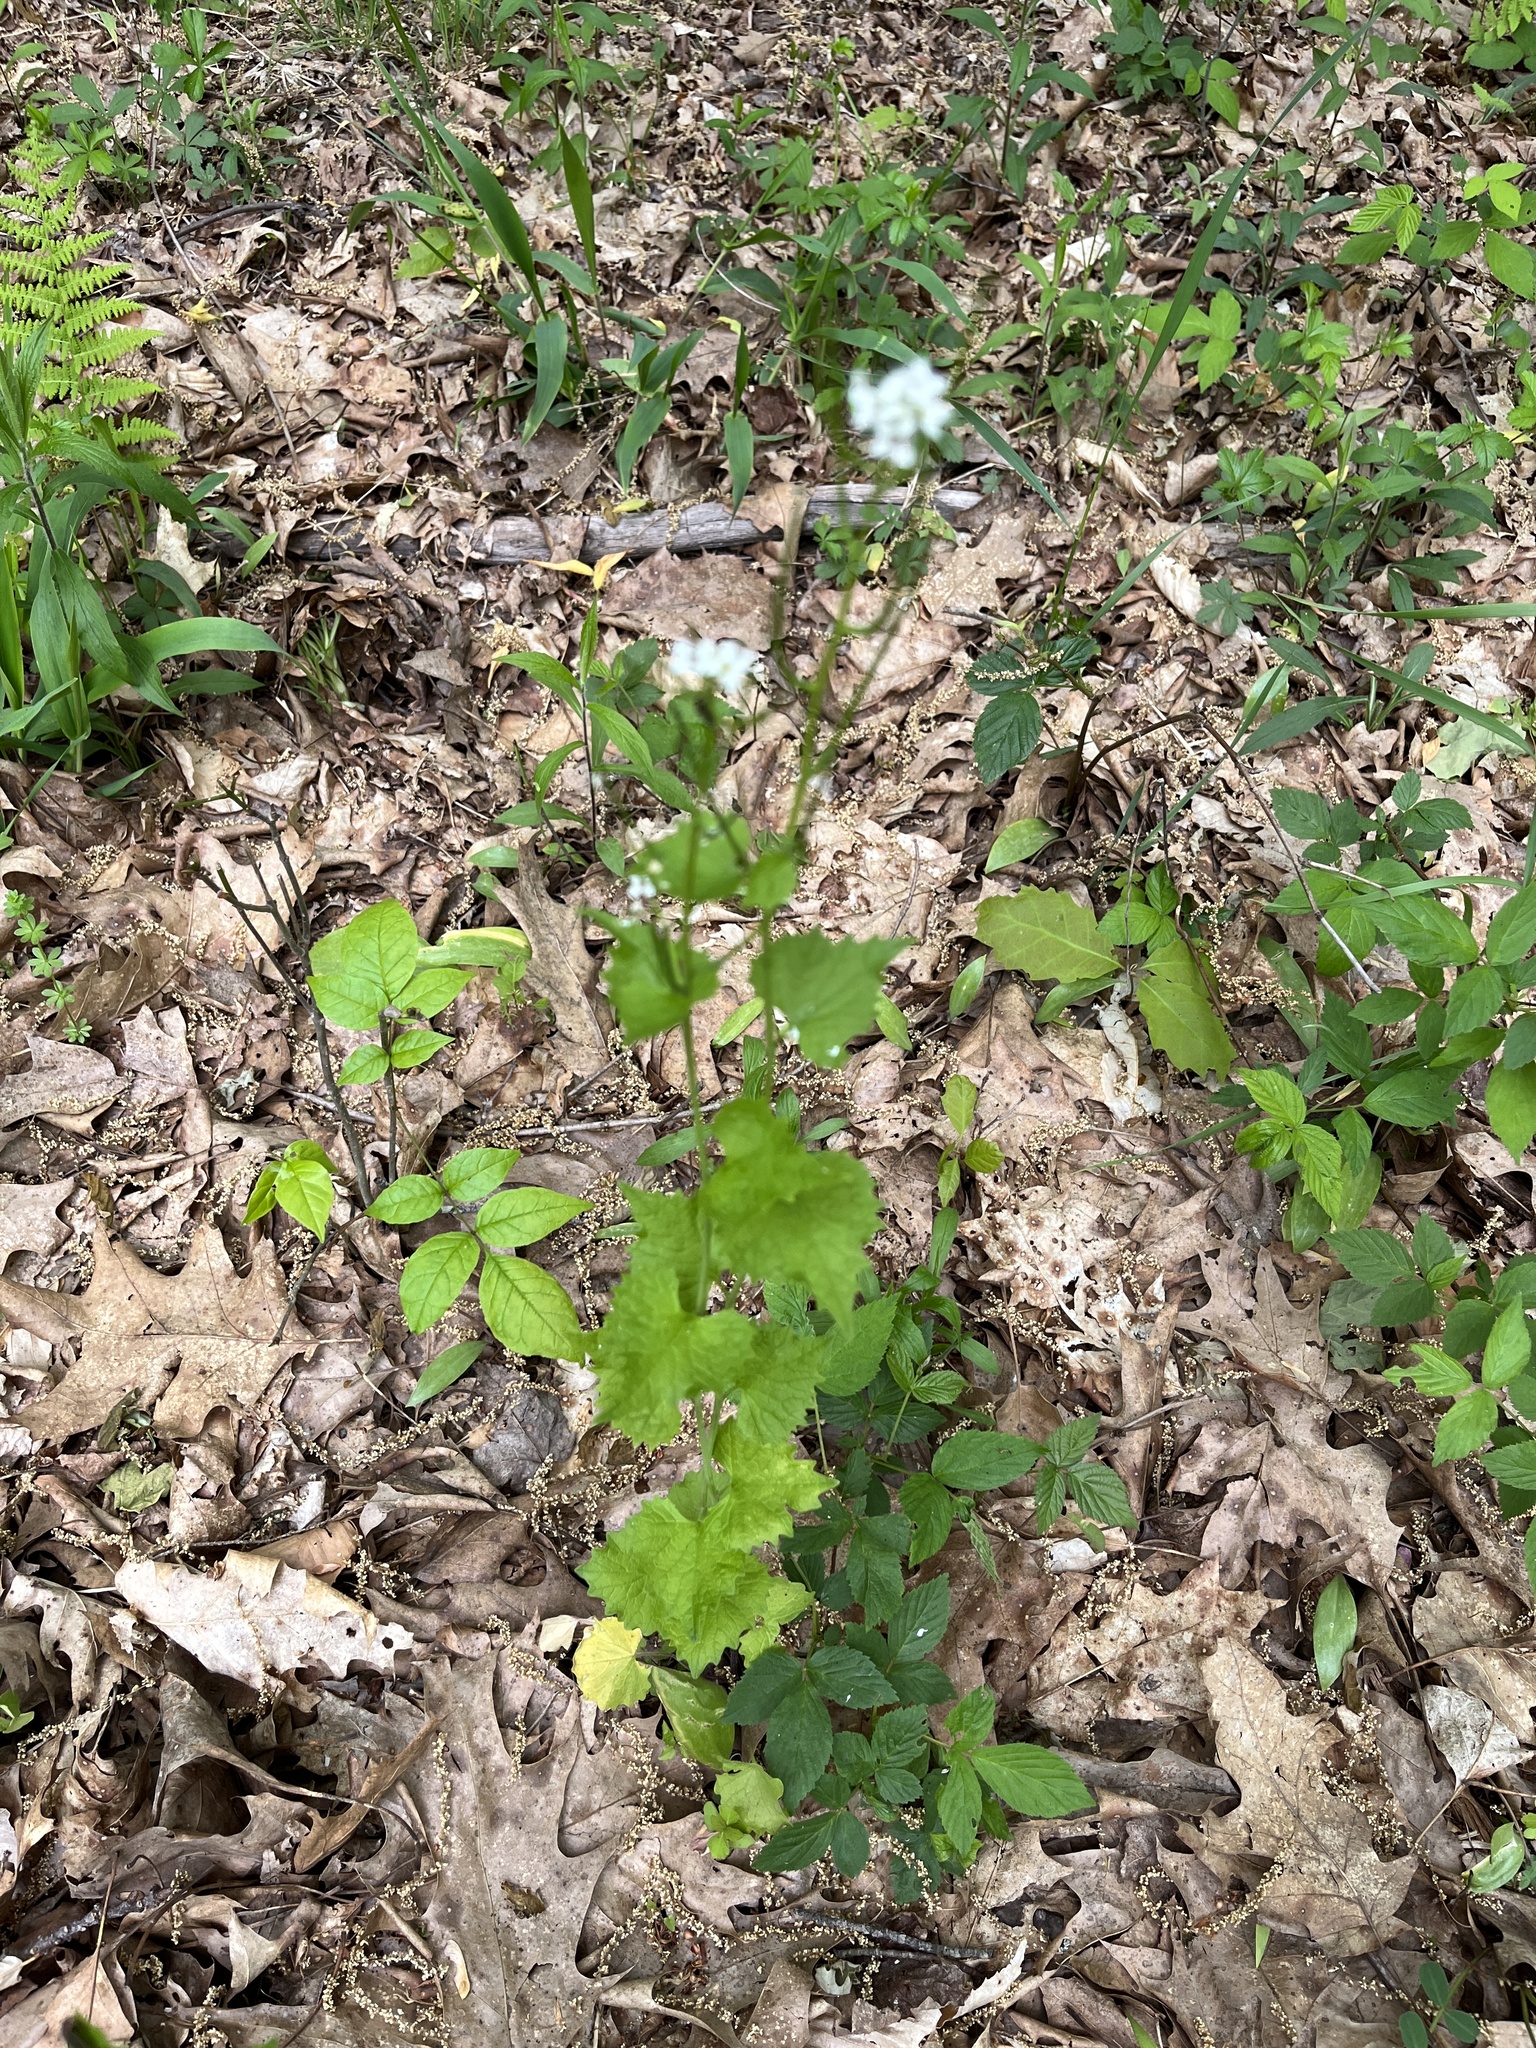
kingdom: Plantae
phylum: Tracheophyta
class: Magnoliopsida
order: Brassicales
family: Brassicaceae
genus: Alliaria
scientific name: Alliaria petiolata
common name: Garlic mustard
